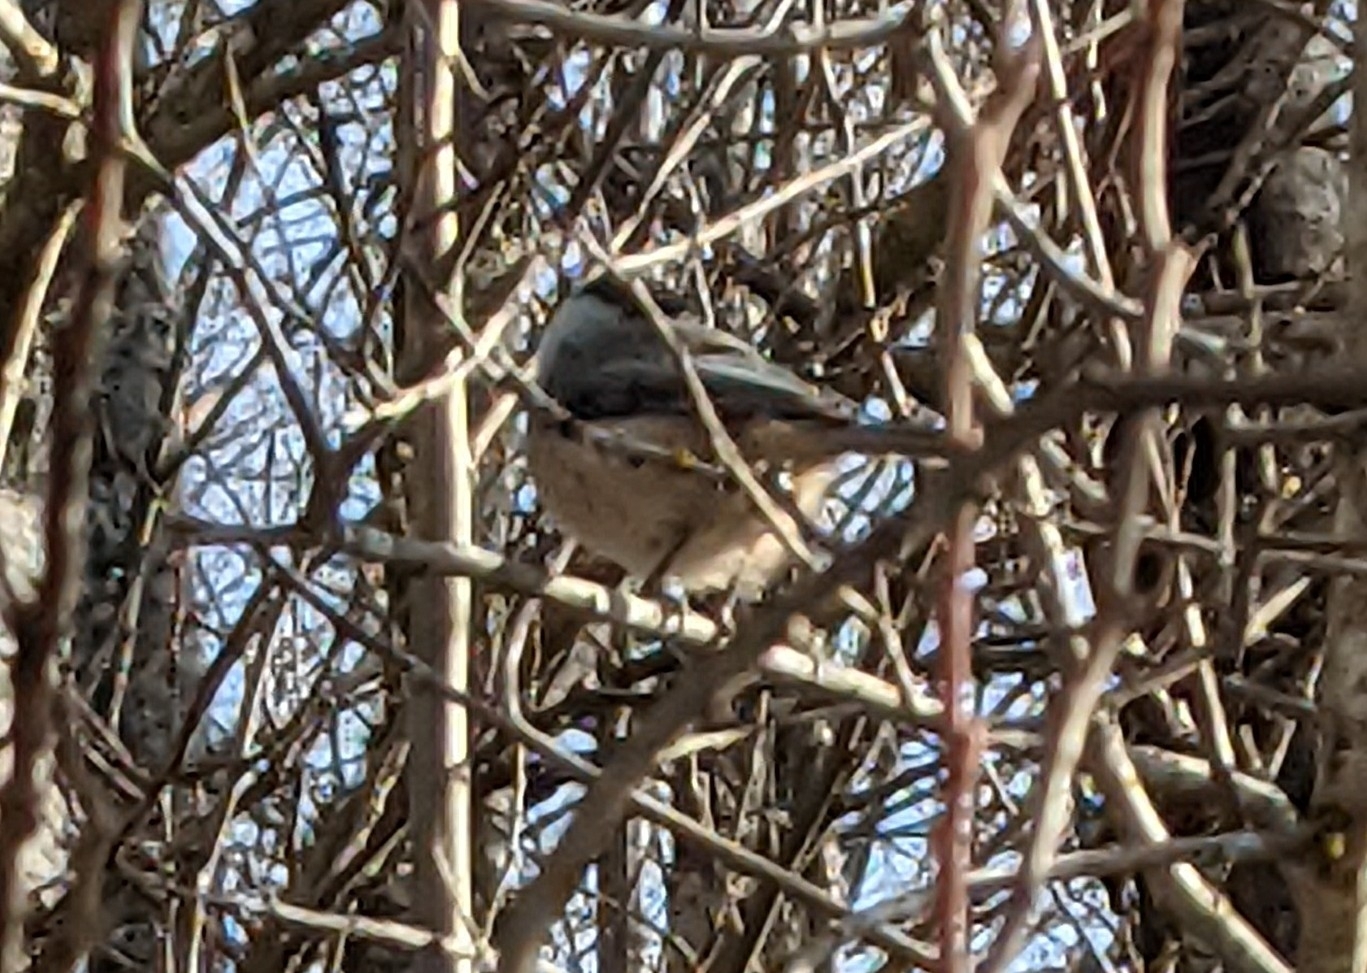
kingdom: Animalia
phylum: Chordata
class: Aves
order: Passeriformes
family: Paridae
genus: Poecile
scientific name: Poecile atricapillus
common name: Black-capped chickadee
